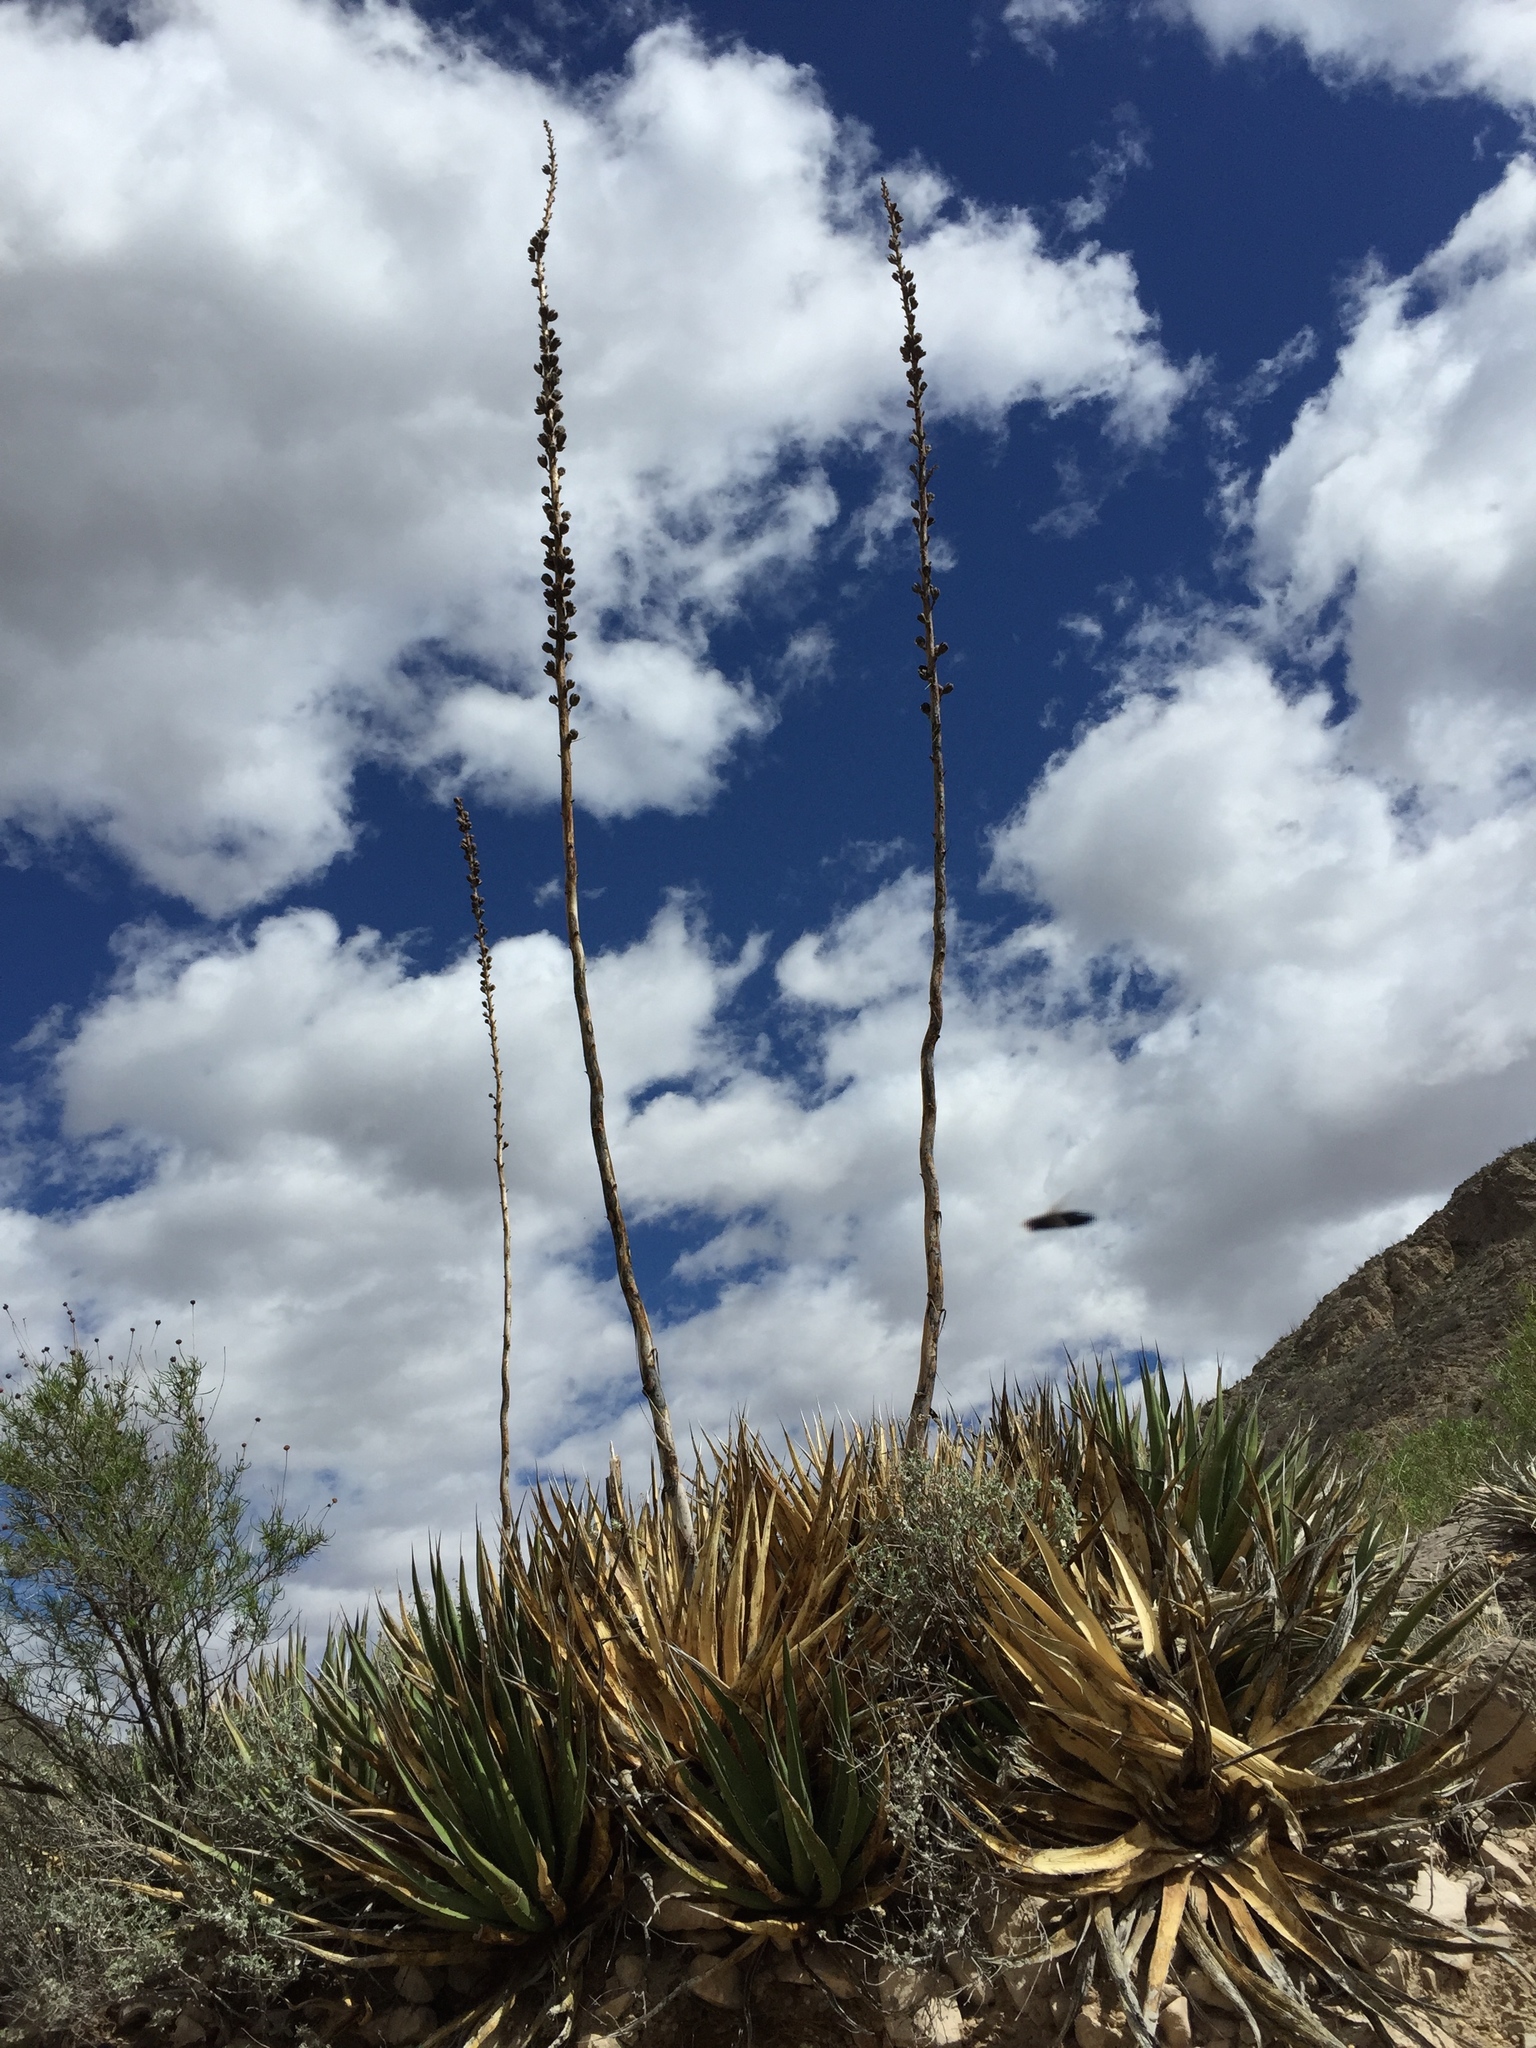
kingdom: Plantae
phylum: Tracheophyta
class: Liliopsida
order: Asparagales
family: Asparagaceae
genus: Agave
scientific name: Agave lechuguilla
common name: Lecheguilla agave
